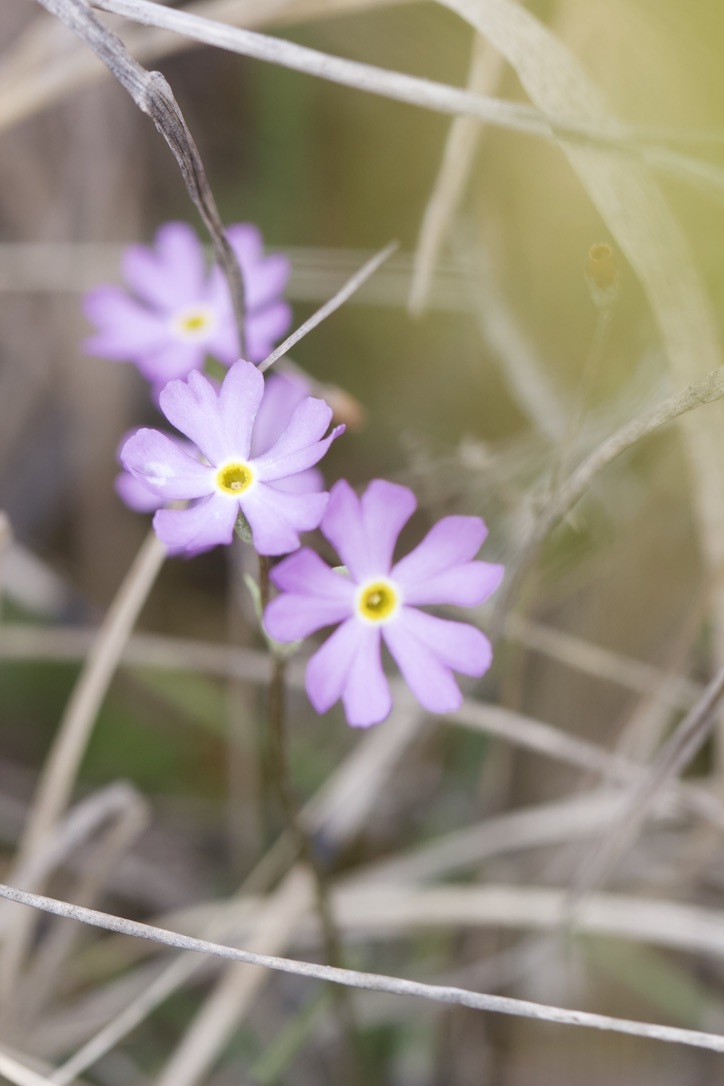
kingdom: Plantae
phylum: Tracheophyta
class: Magnoliopsida
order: Ericales
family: Primulaceae
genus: Primula
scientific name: Primula mistassinica
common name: Bird's-eye primrose
